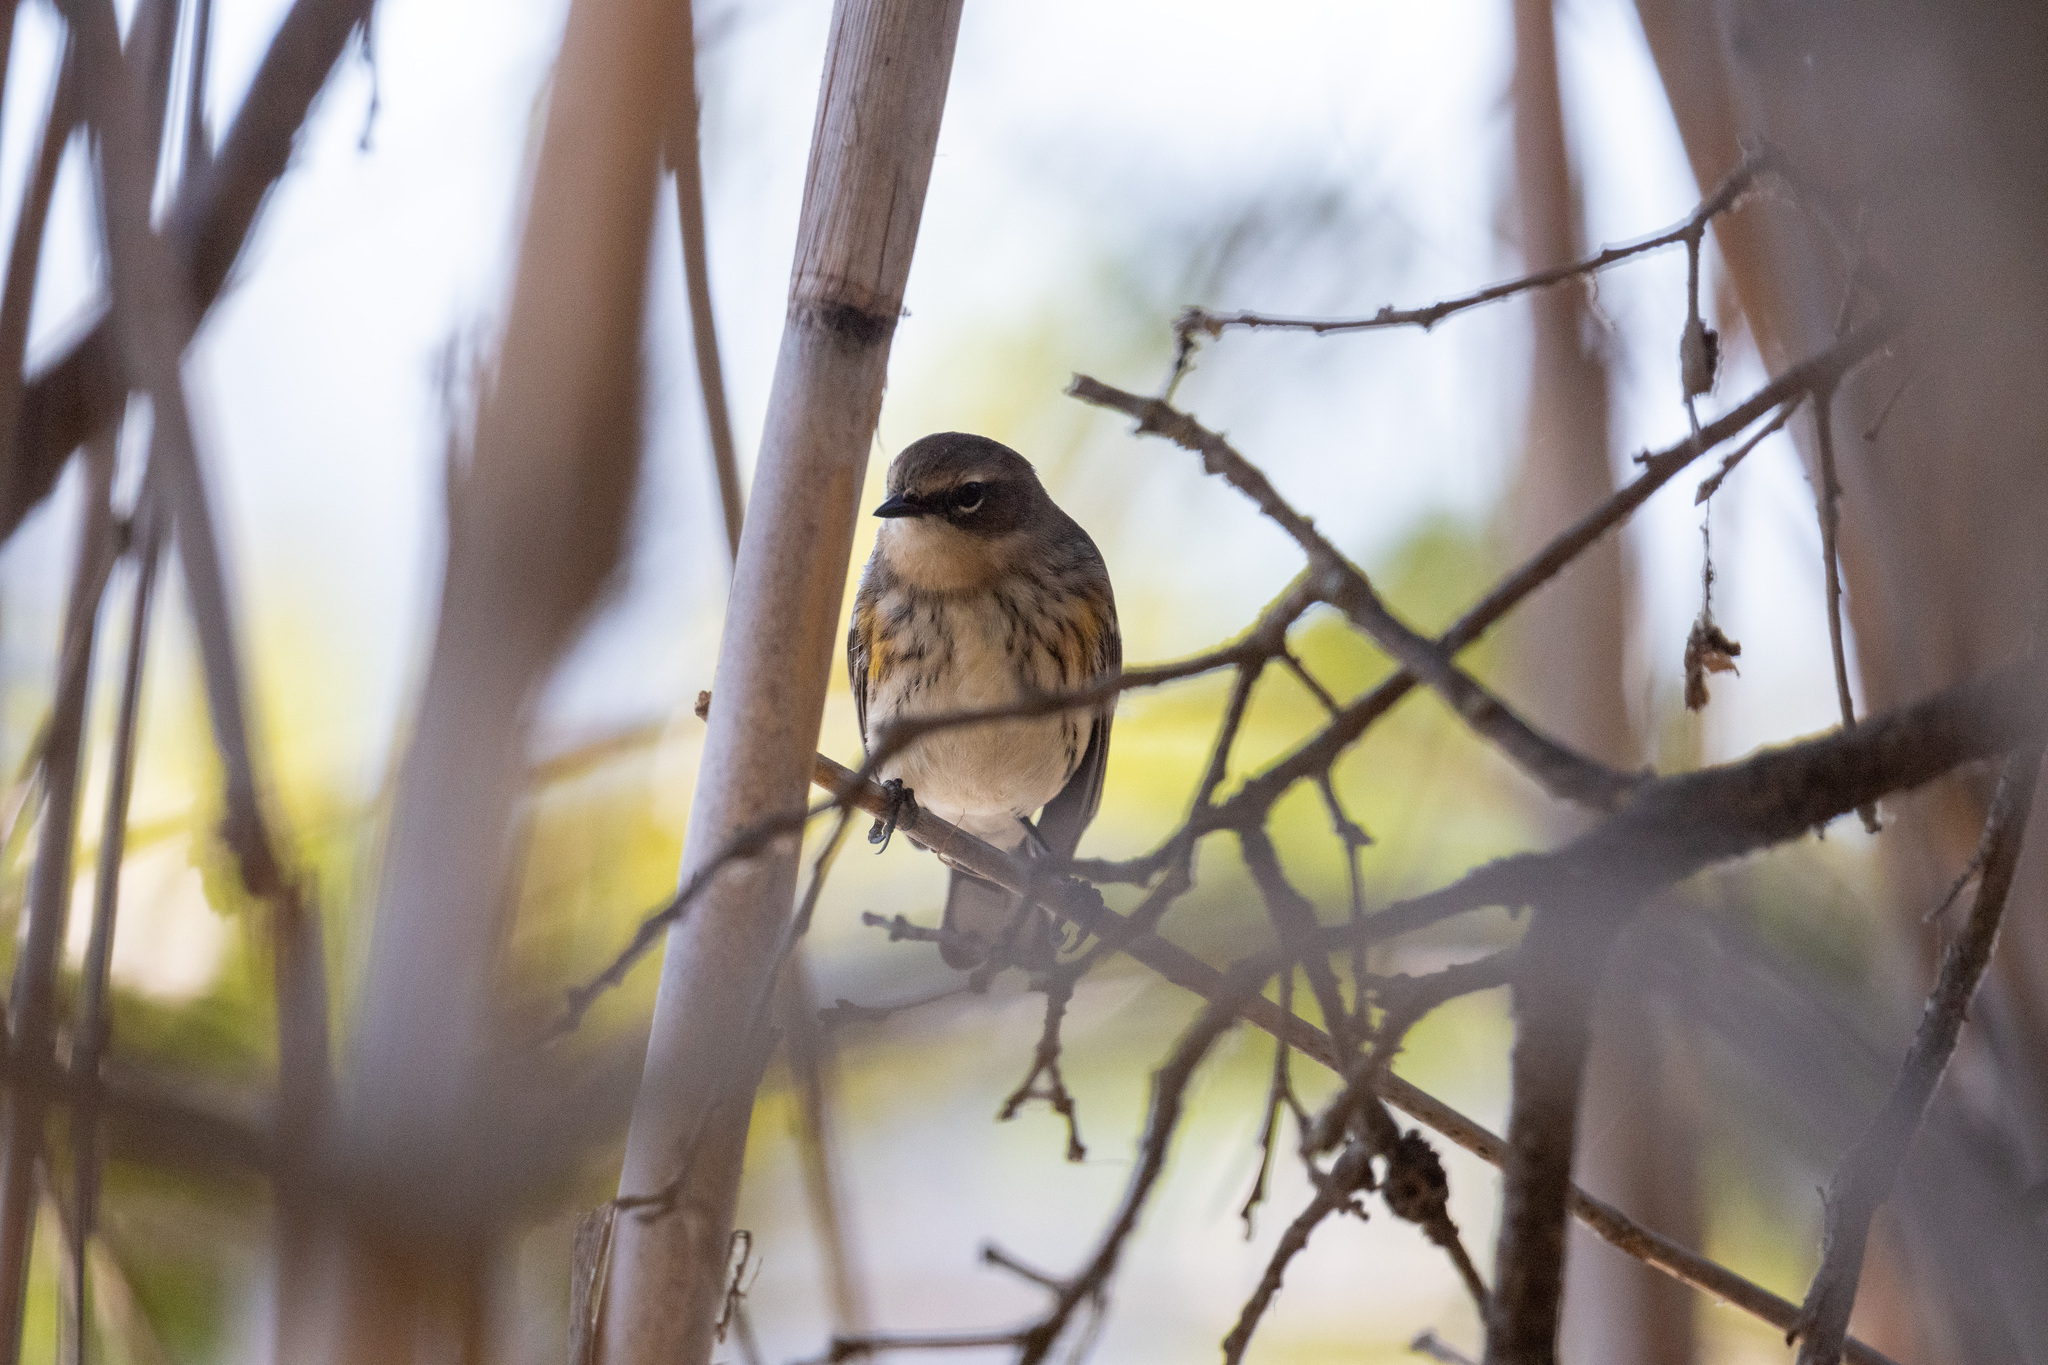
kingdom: Animalia
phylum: Chordata
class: Aves
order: Passeriformes
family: Parulidae
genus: Setophaga
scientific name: Setophaga coronata
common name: Myrtle warbler
